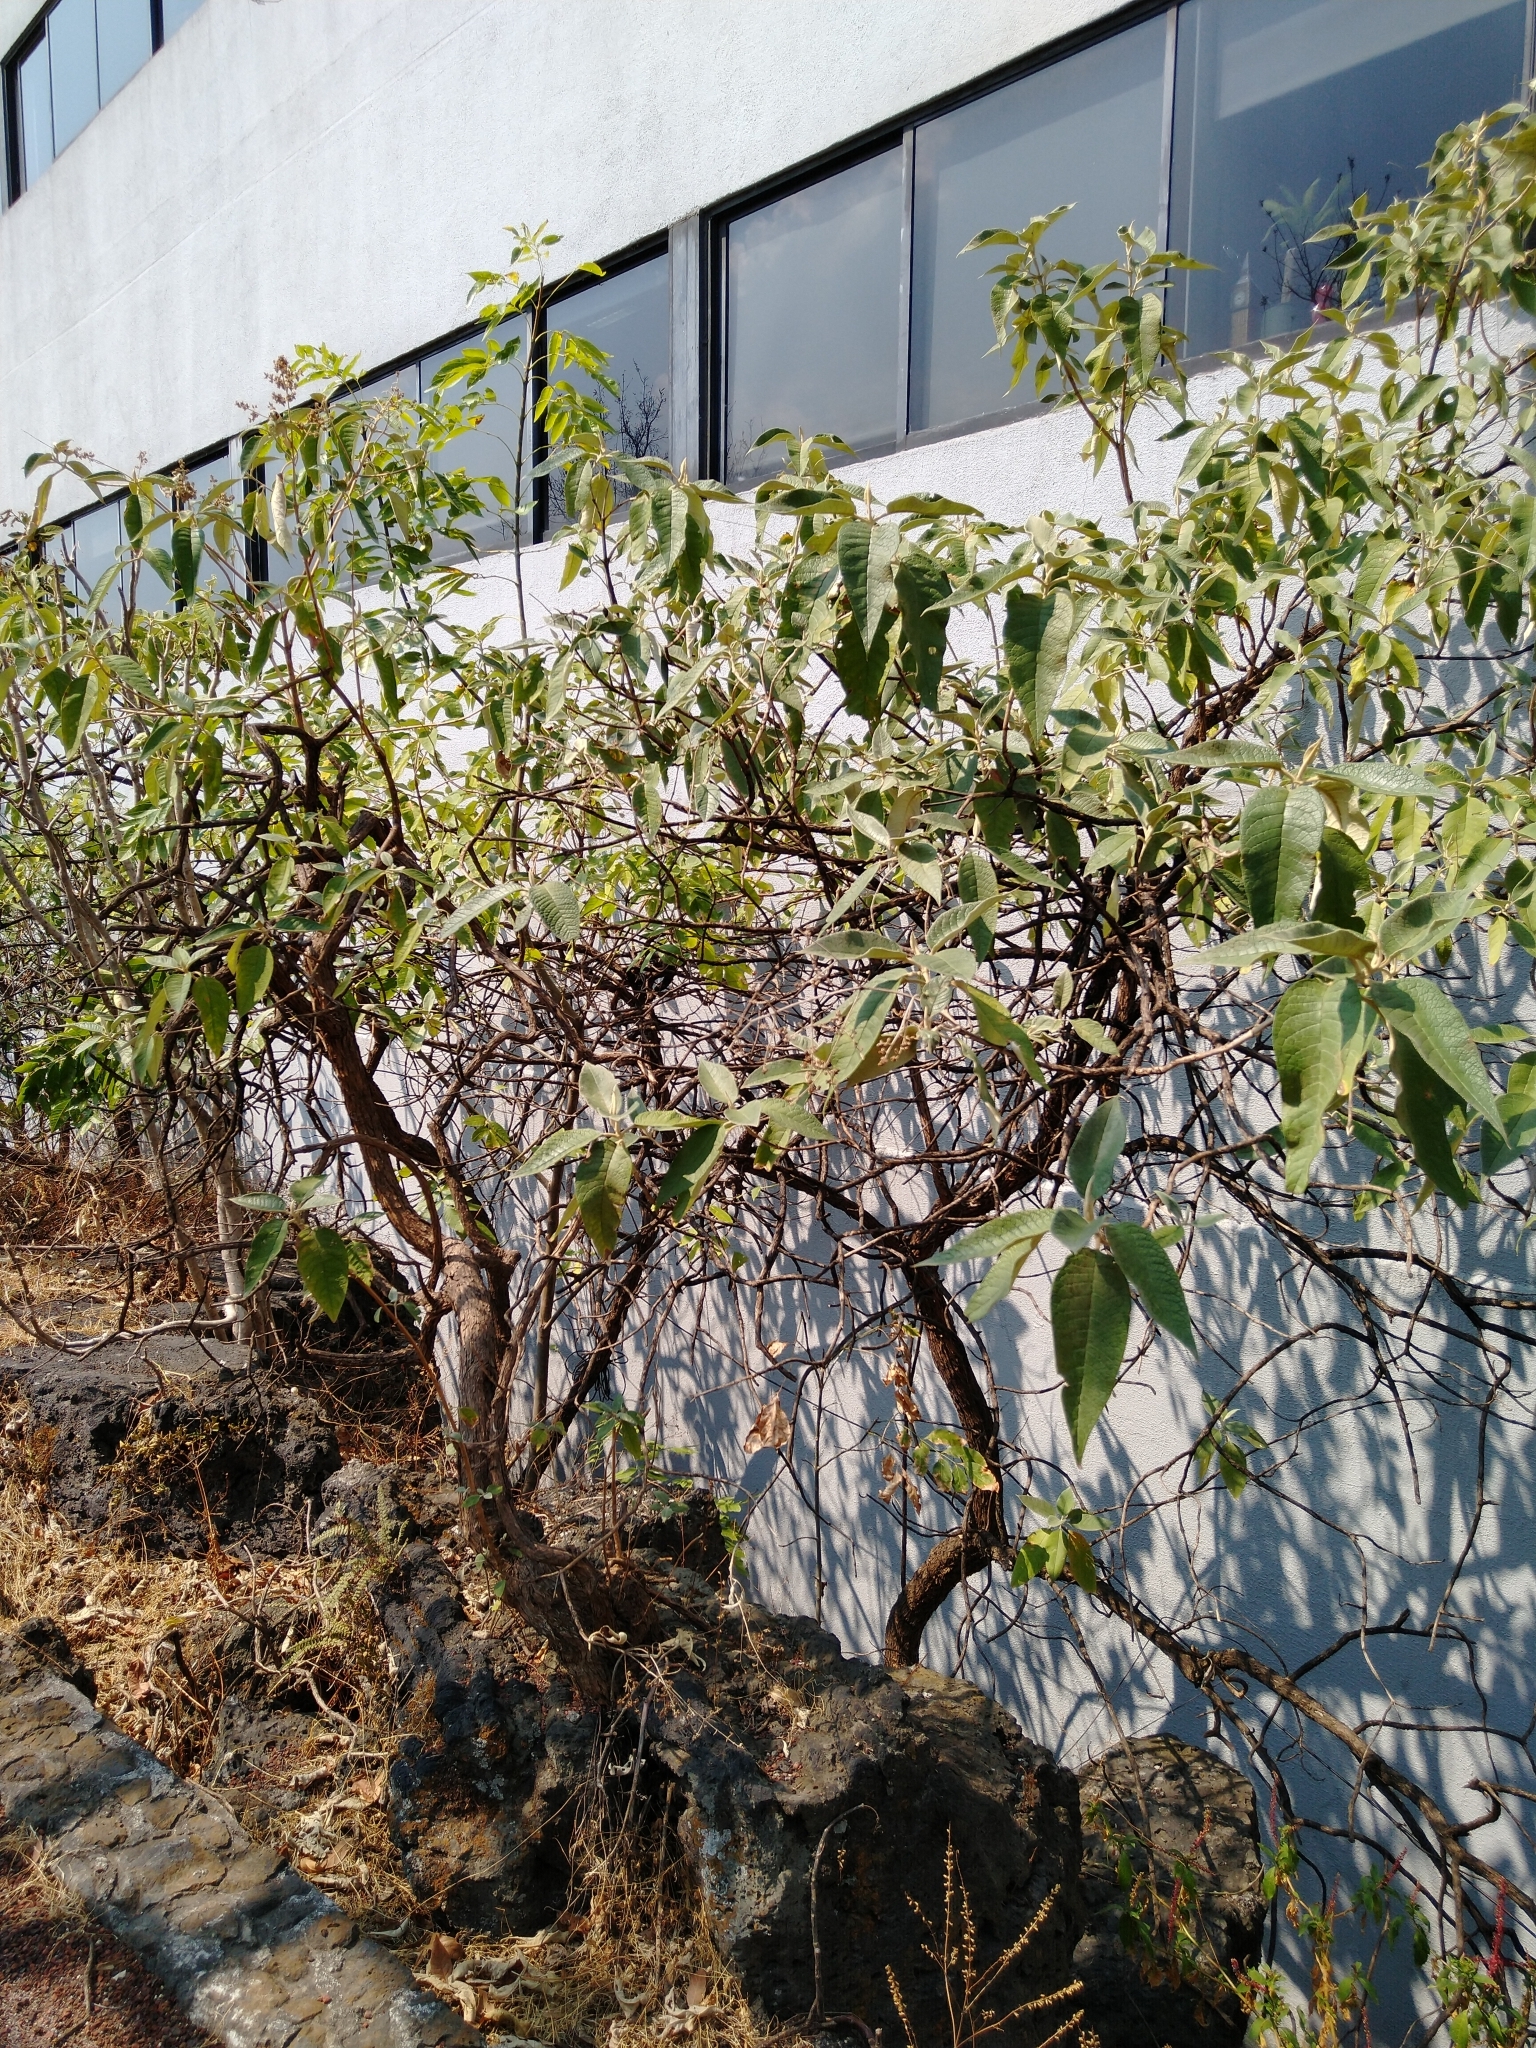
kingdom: Plantae
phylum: Tracheophyta
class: Magnoliopsida
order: Lamiales
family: Scrophulariaceae
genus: Buddleja
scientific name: Buddleja cordata
